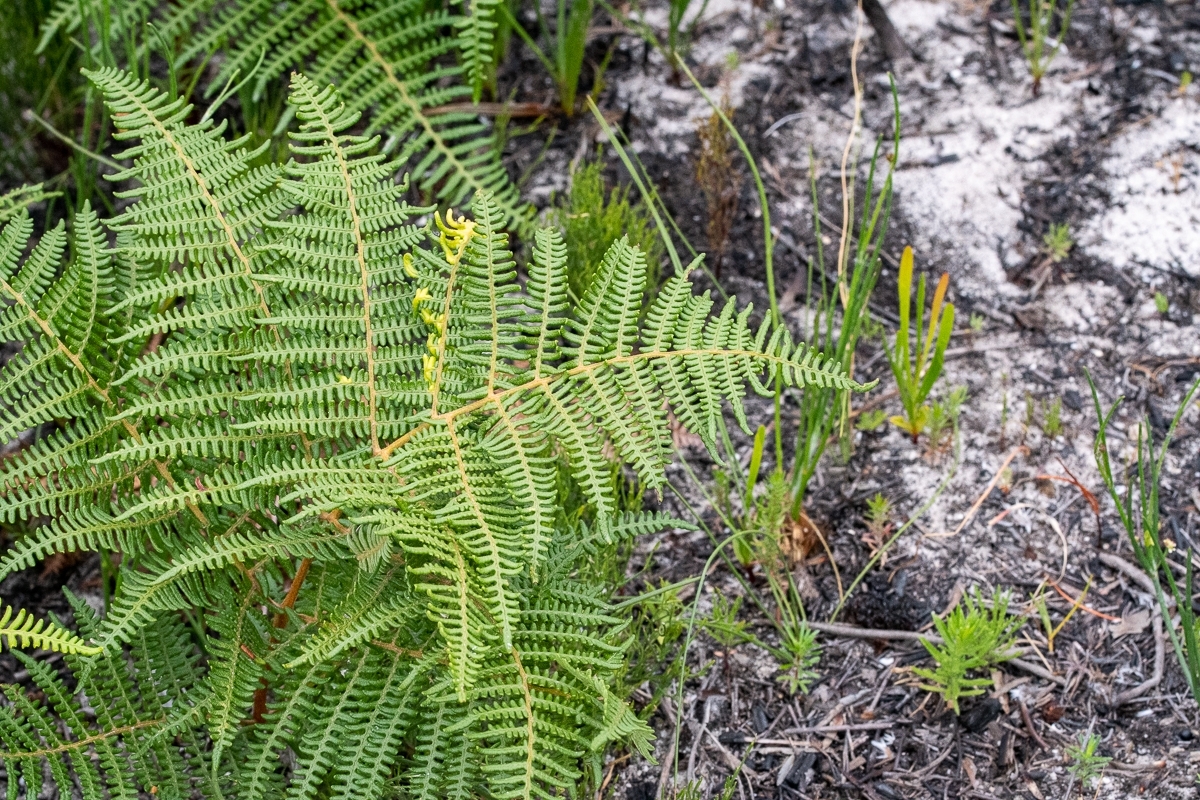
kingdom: Plantae
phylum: Tracheophyta
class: Polypodiopsida
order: Polypodiales
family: Dennstaedtiaceae
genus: Pteridium
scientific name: Pteridium aquilinum
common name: Bracken
